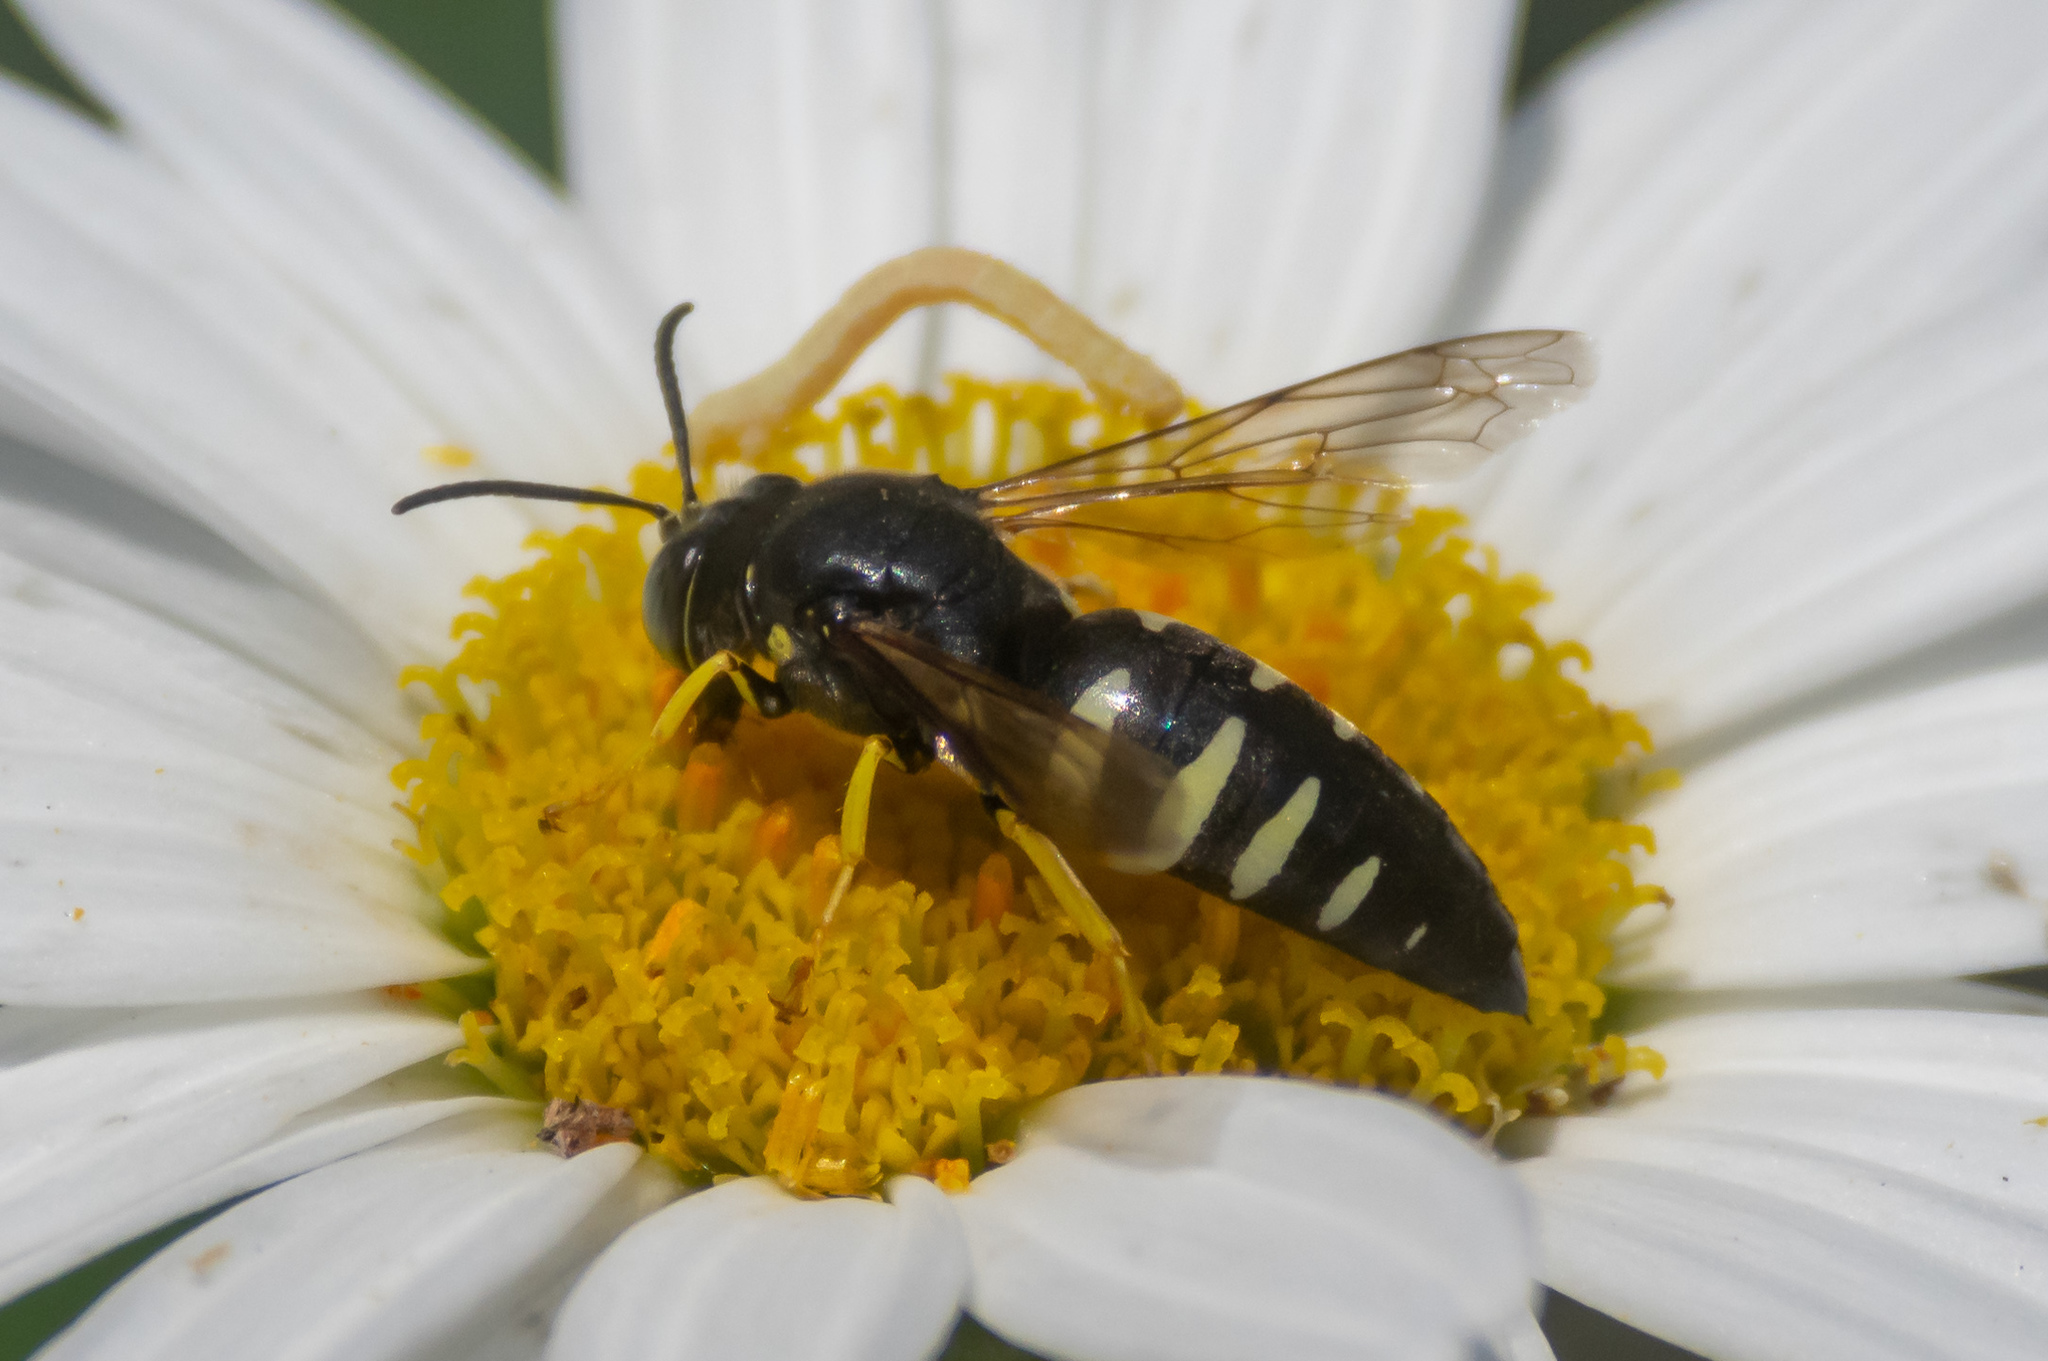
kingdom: Animalia
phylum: Arthropoda
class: Insecta
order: Hymenoptera
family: Crabronidae
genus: Bicyrtes
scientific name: Bicyrtes quadrifasciatus
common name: Four-banded stink bug hunter wasp
